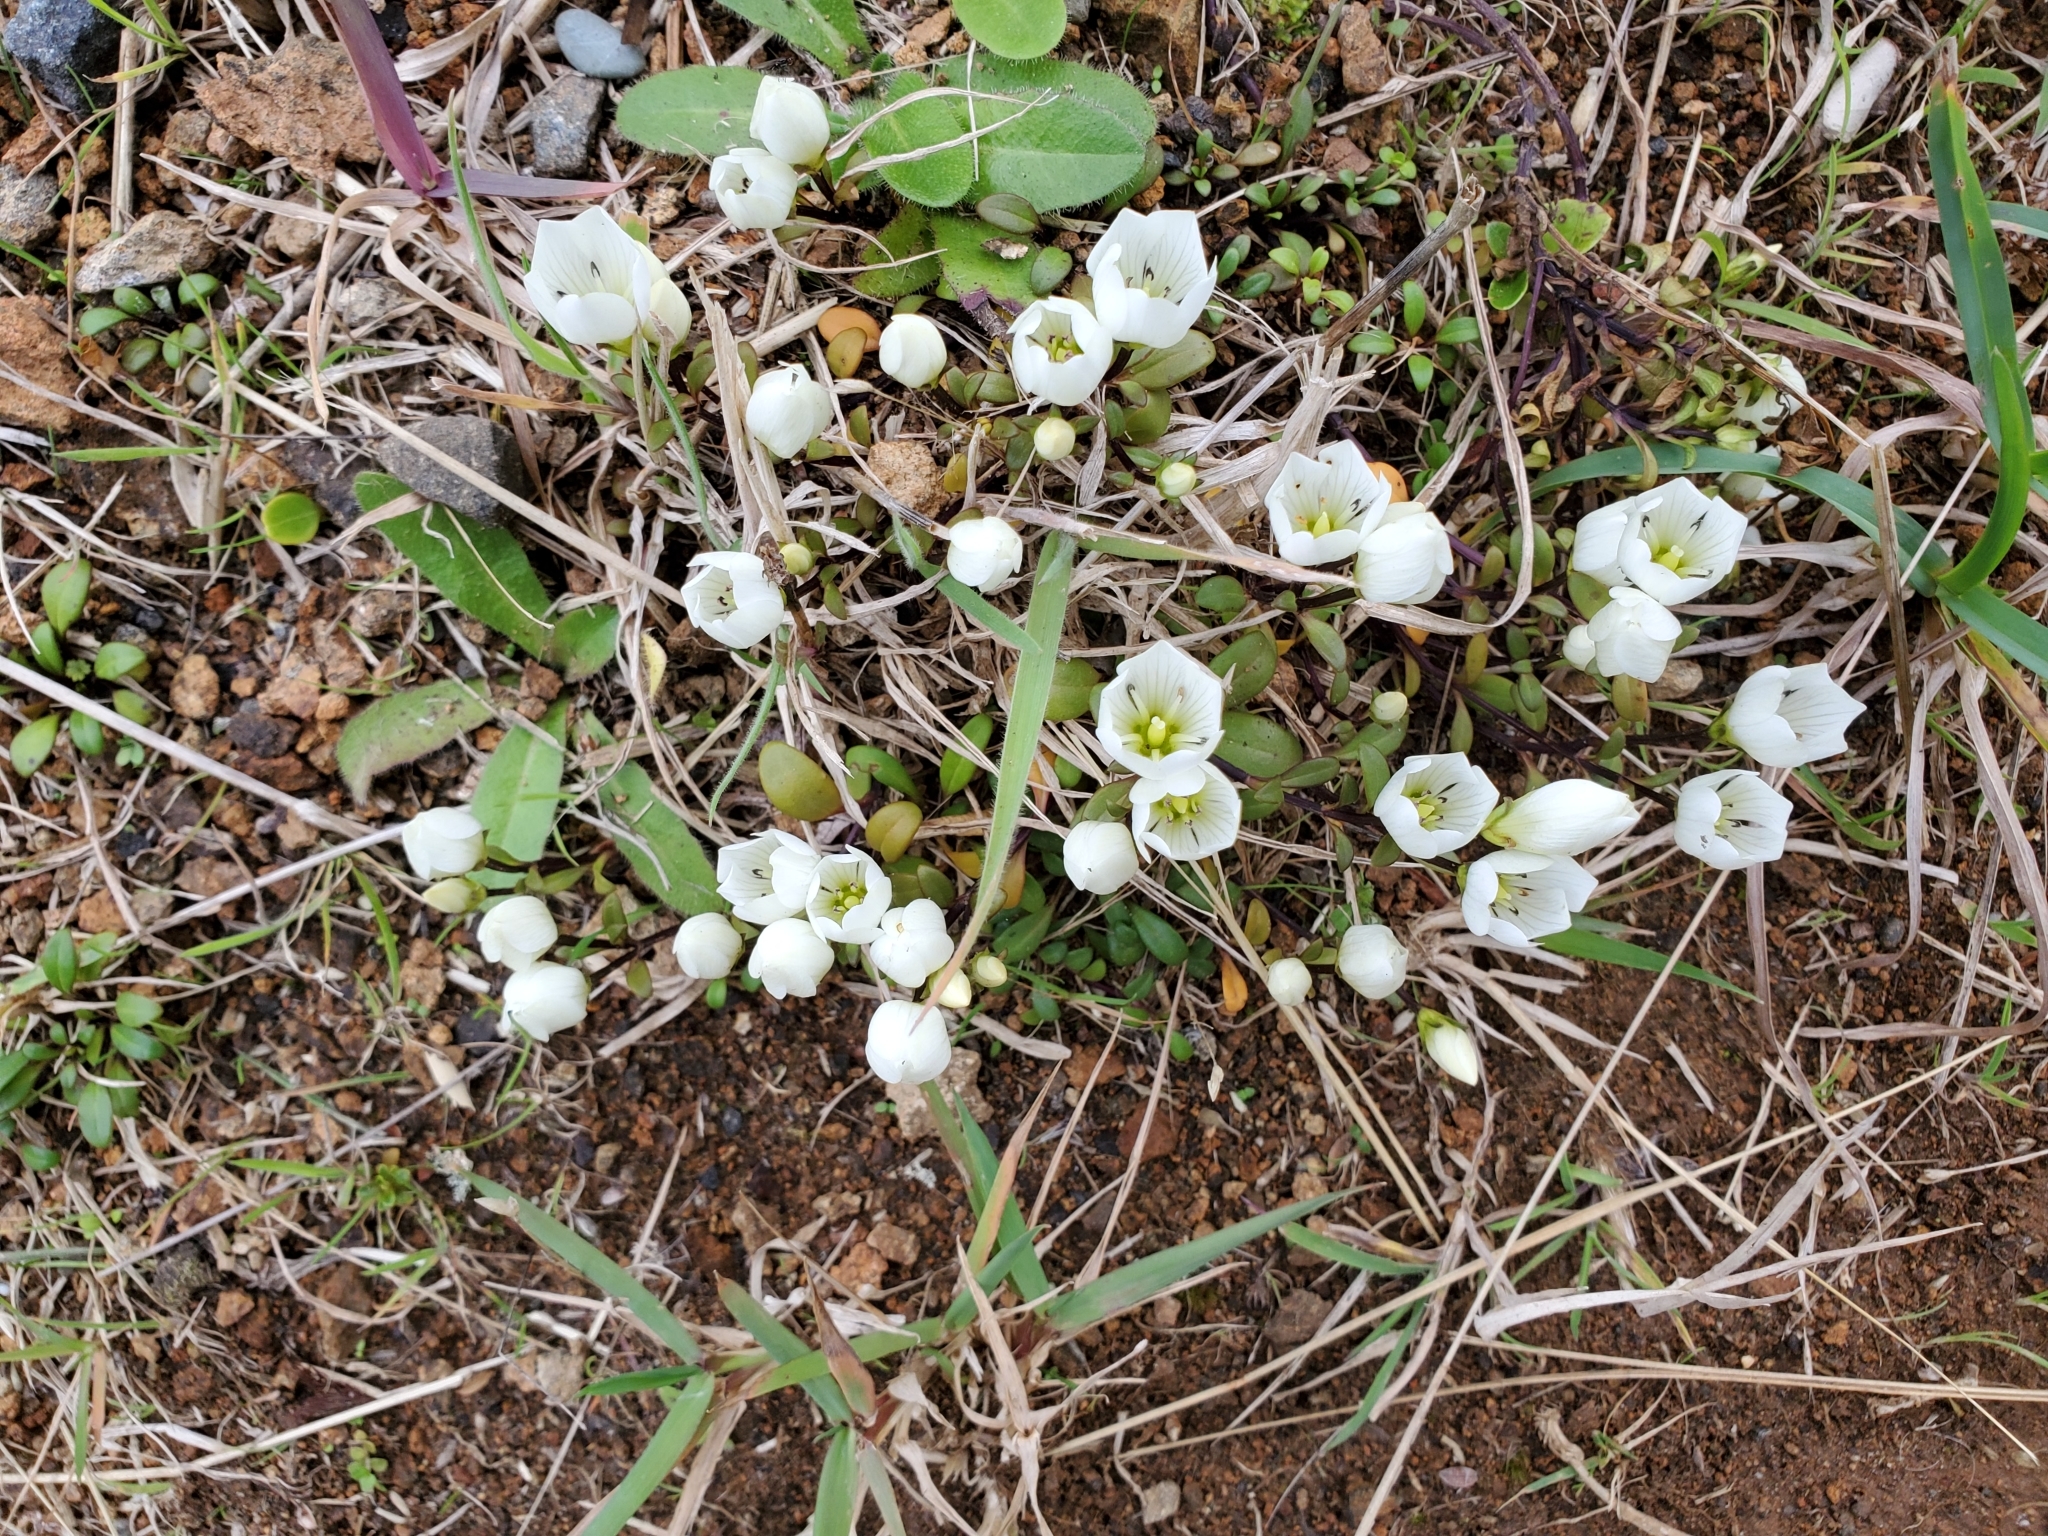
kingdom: Plantae
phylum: Tracheophyta
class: Magnoliopsida
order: Gentianales
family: Gentianaceae
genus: Gentianella
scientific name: Gentianella saxosa
